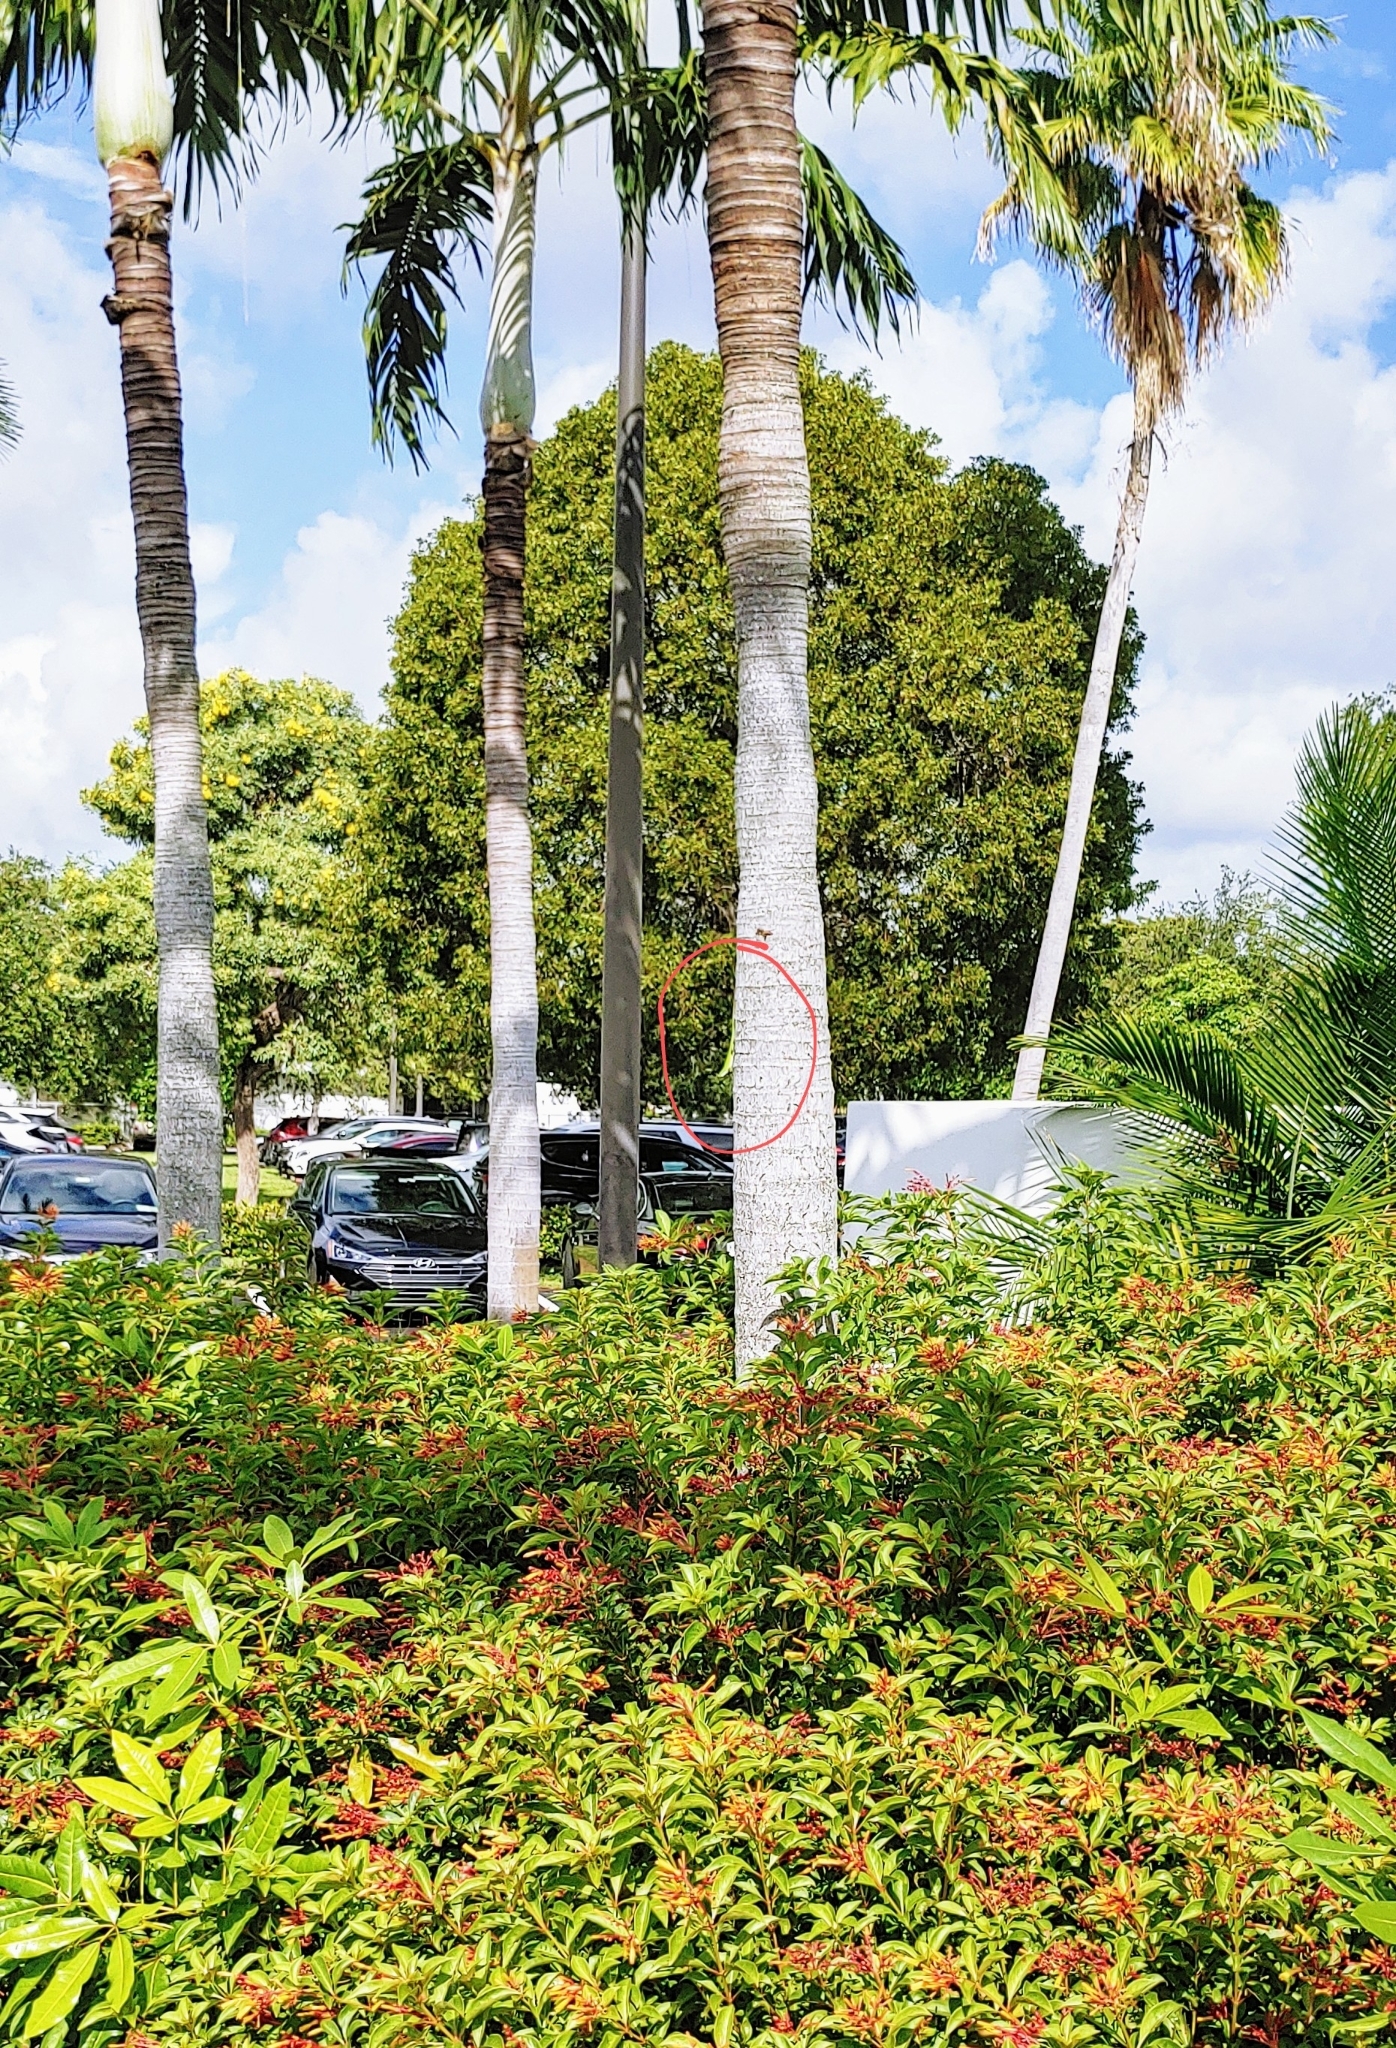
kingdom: Animalia
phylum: Chordata
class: Squamata
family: Dactyloidae
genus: Anolis
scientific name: Anolis carolinensis
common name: Green anole
